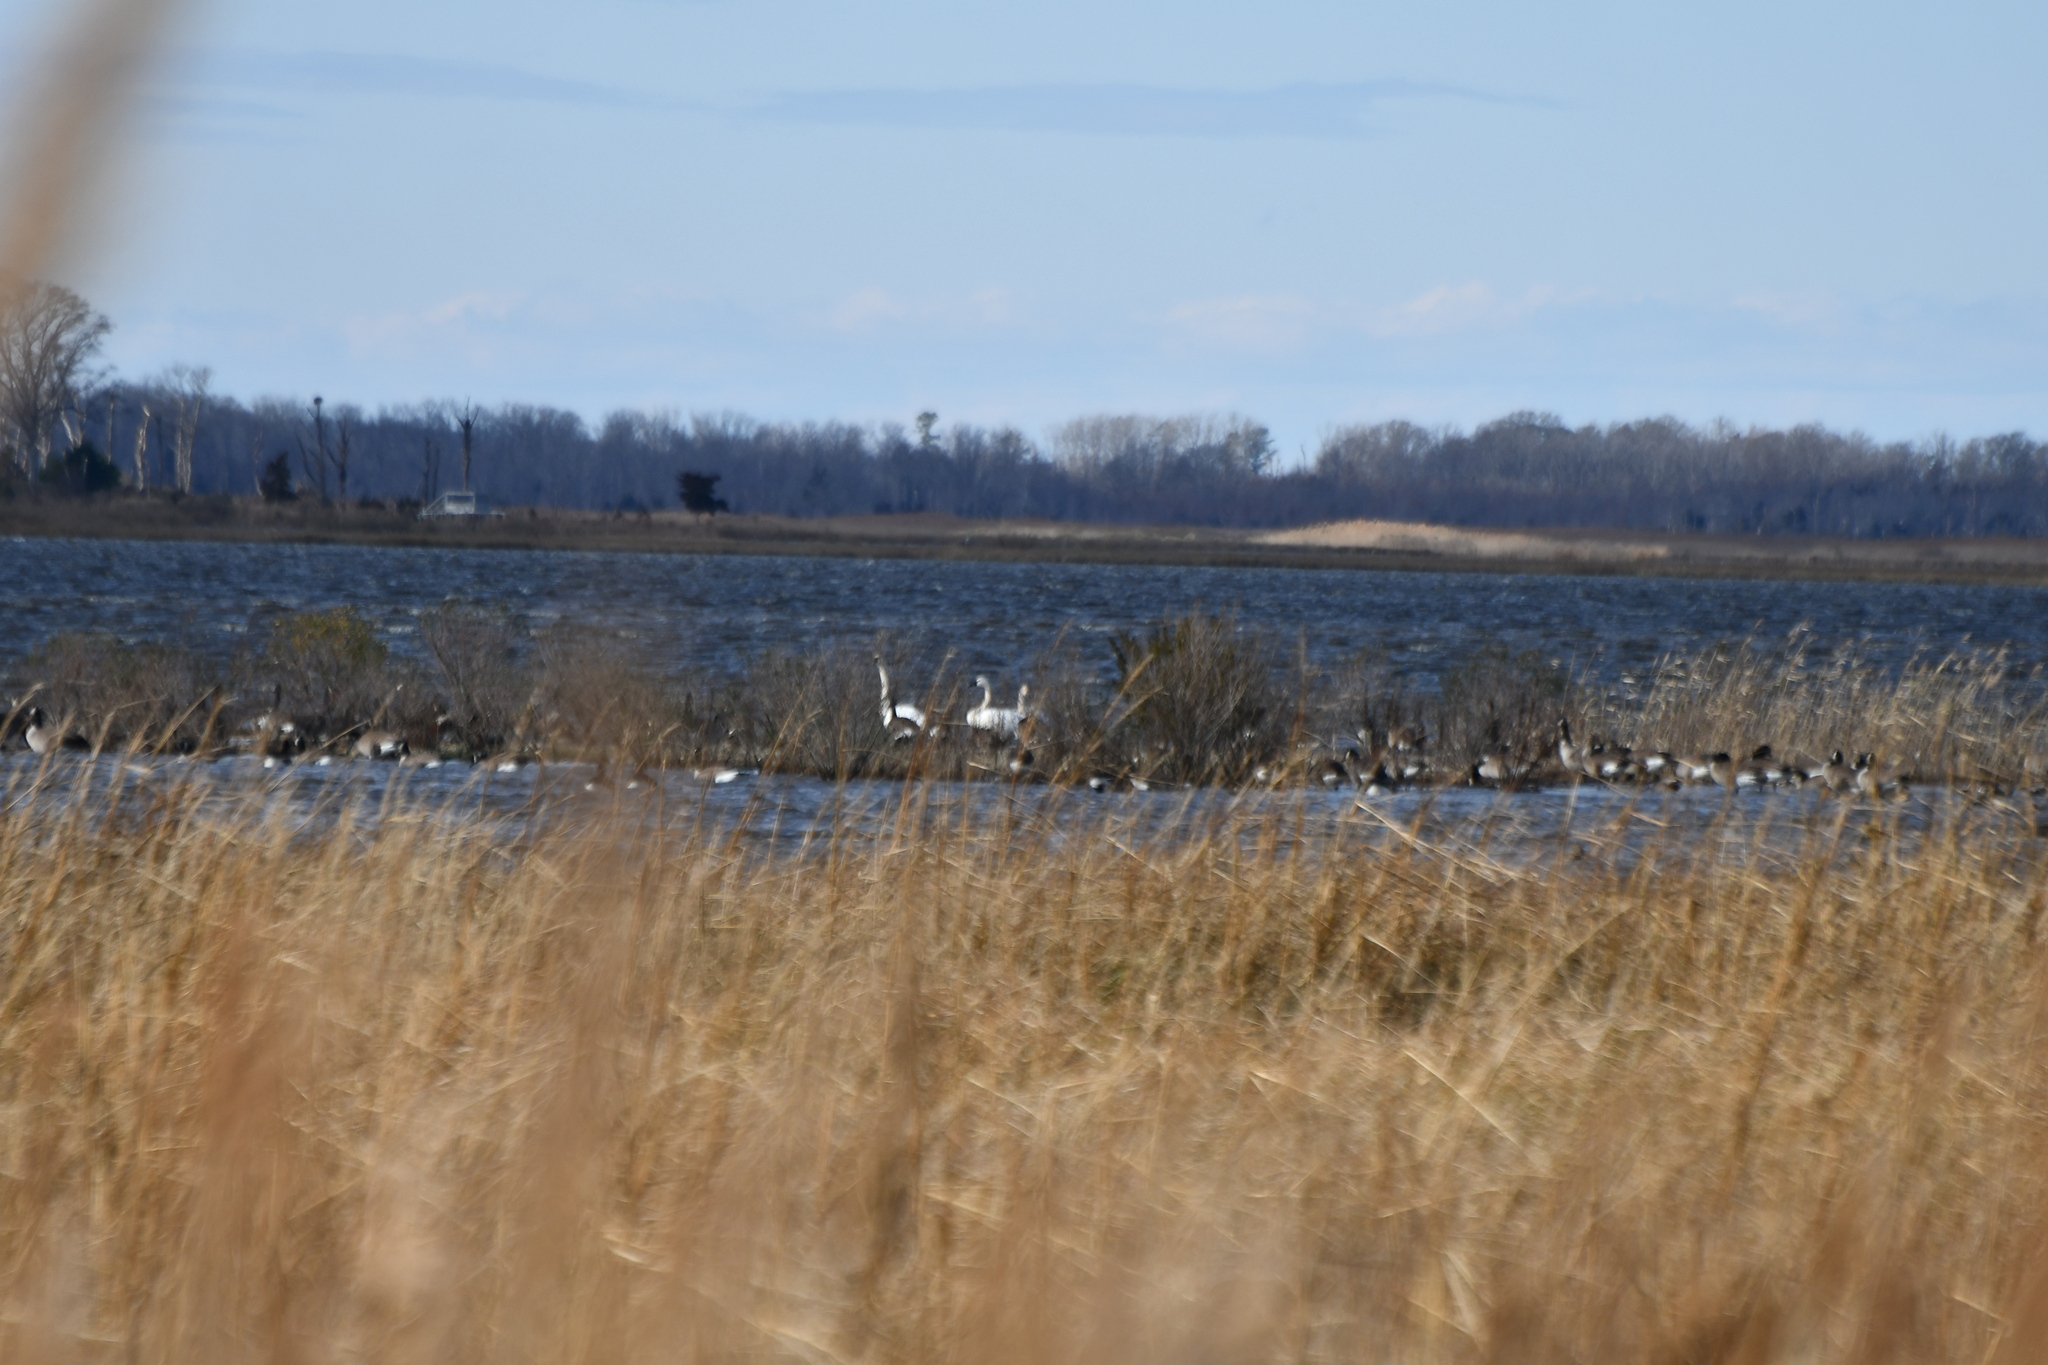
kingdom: Animalia
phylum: Chordata
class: Aves
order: Anseriformes
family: Anatidae
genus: Cygnus
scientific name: Cygnus columbianus
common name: Tundra swan
